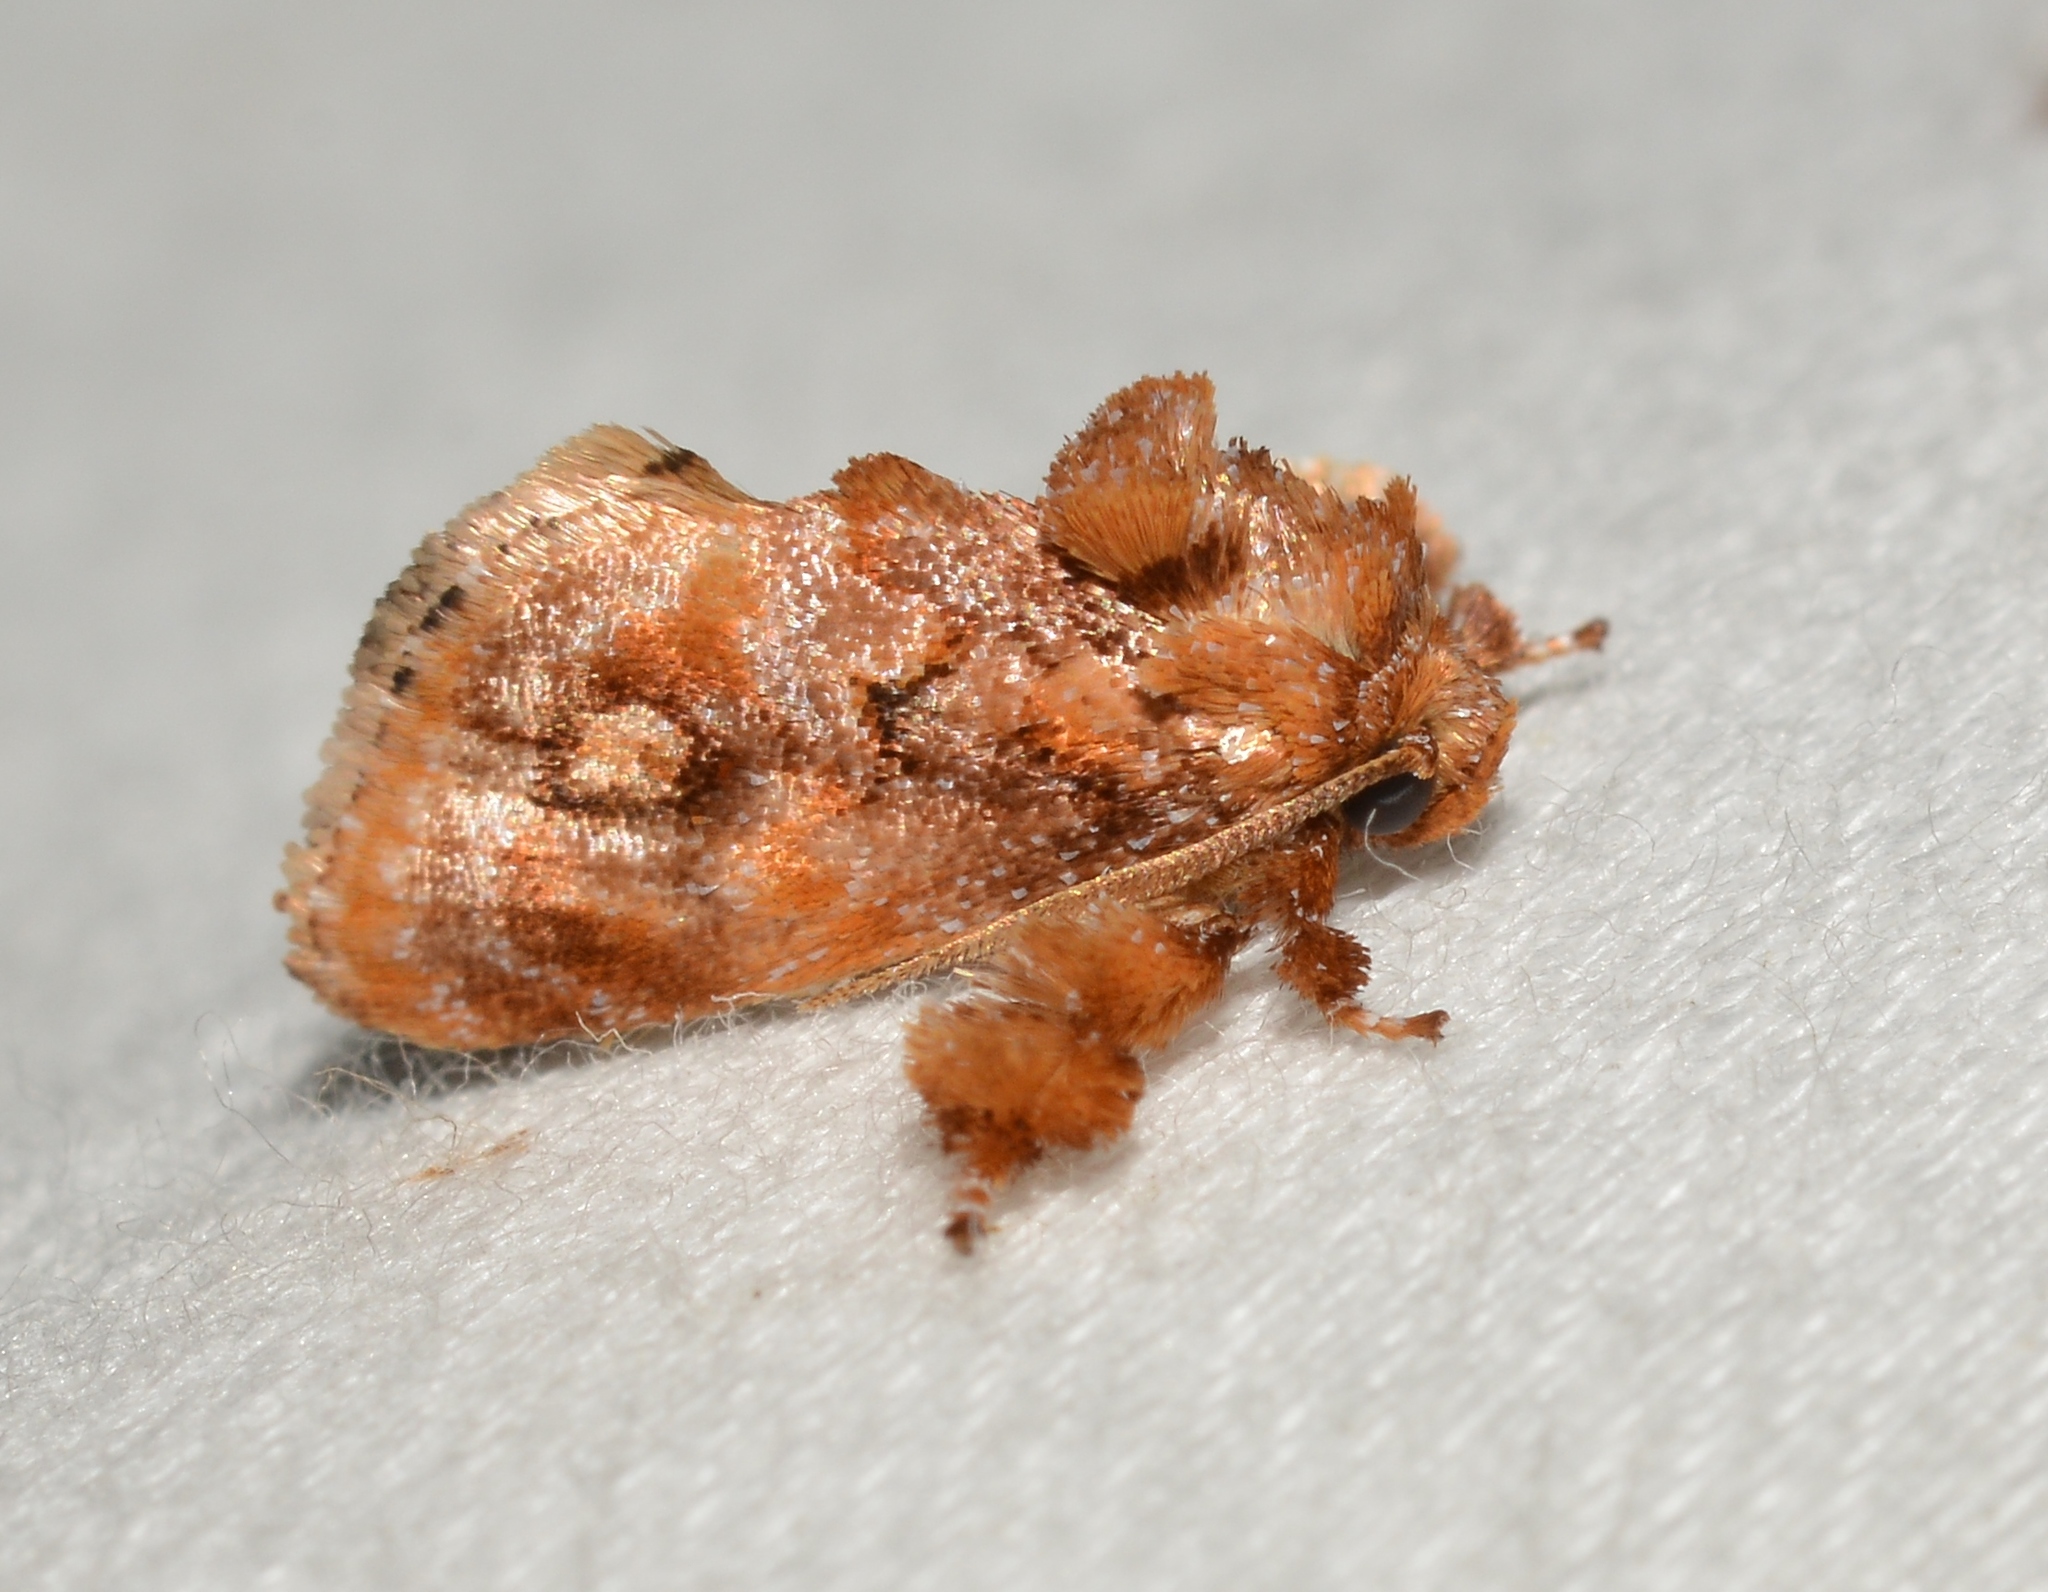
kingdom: Animalia
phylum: Arthropoda
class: Insecta
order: Lepidoptera
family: Limacodidae
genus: Isochaetes
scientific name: Isochaetes beutenmuelleri
